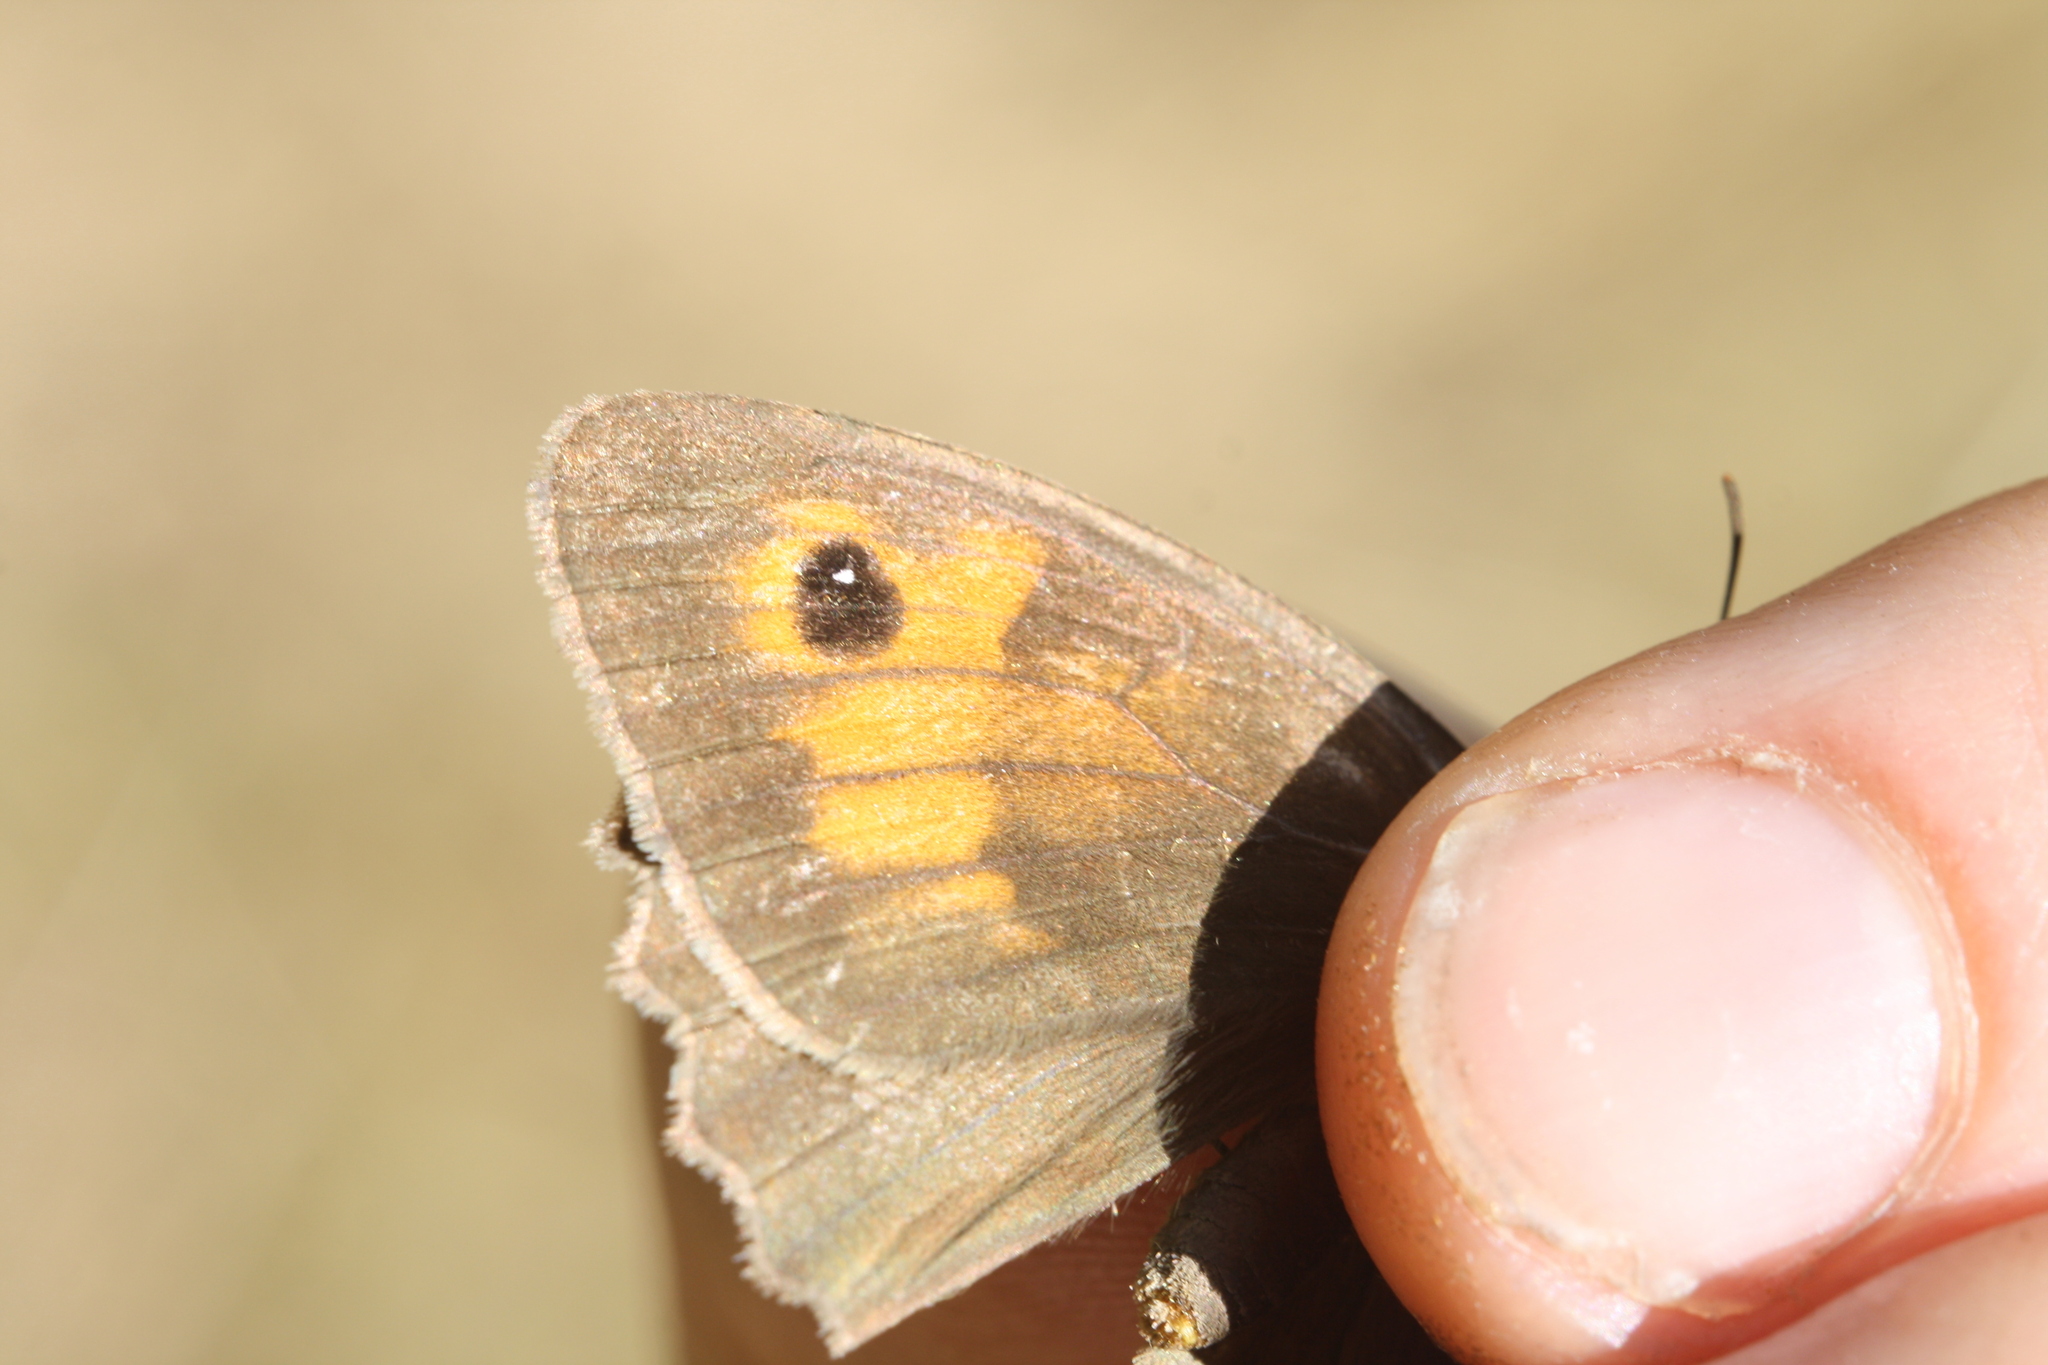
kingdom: Animalia
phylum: Arthropoda
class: Insecta
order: Lepidoptera
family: Nymphalidae
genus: Maniola
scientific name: Maniola jurtina
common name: Meadow brown
